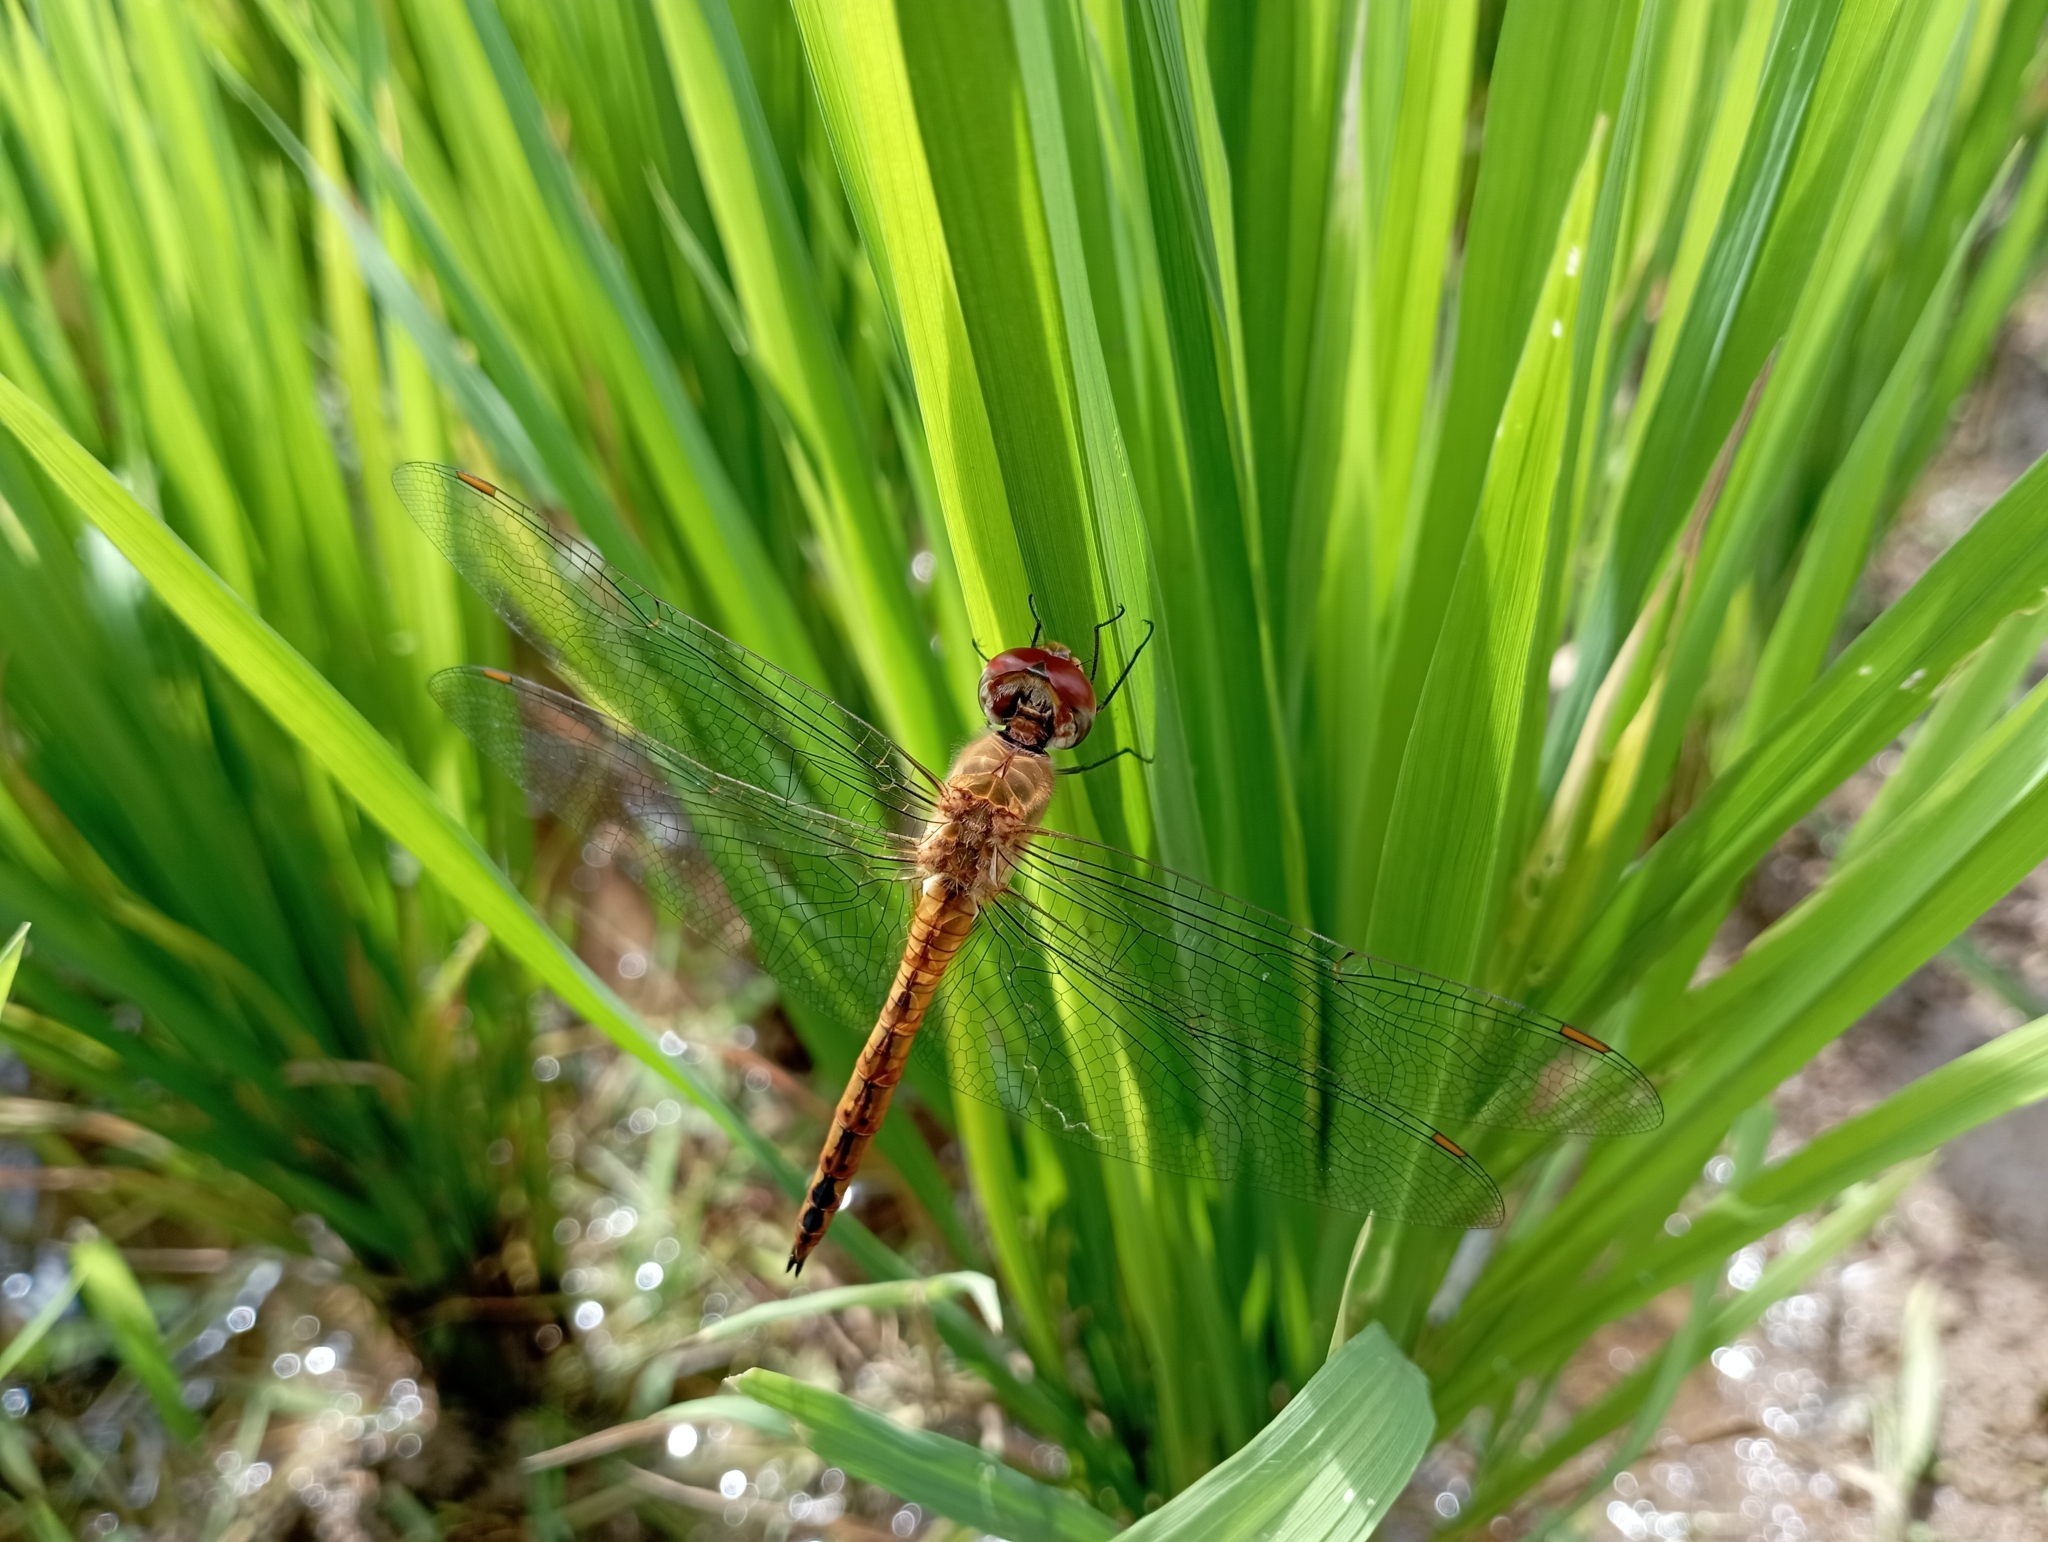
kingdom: Animalia
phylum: Arthropoda
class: Insecta
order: Odonata
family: Libellulidae
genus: Pantala
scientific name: Pantala flavescens
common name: Wandering glider
